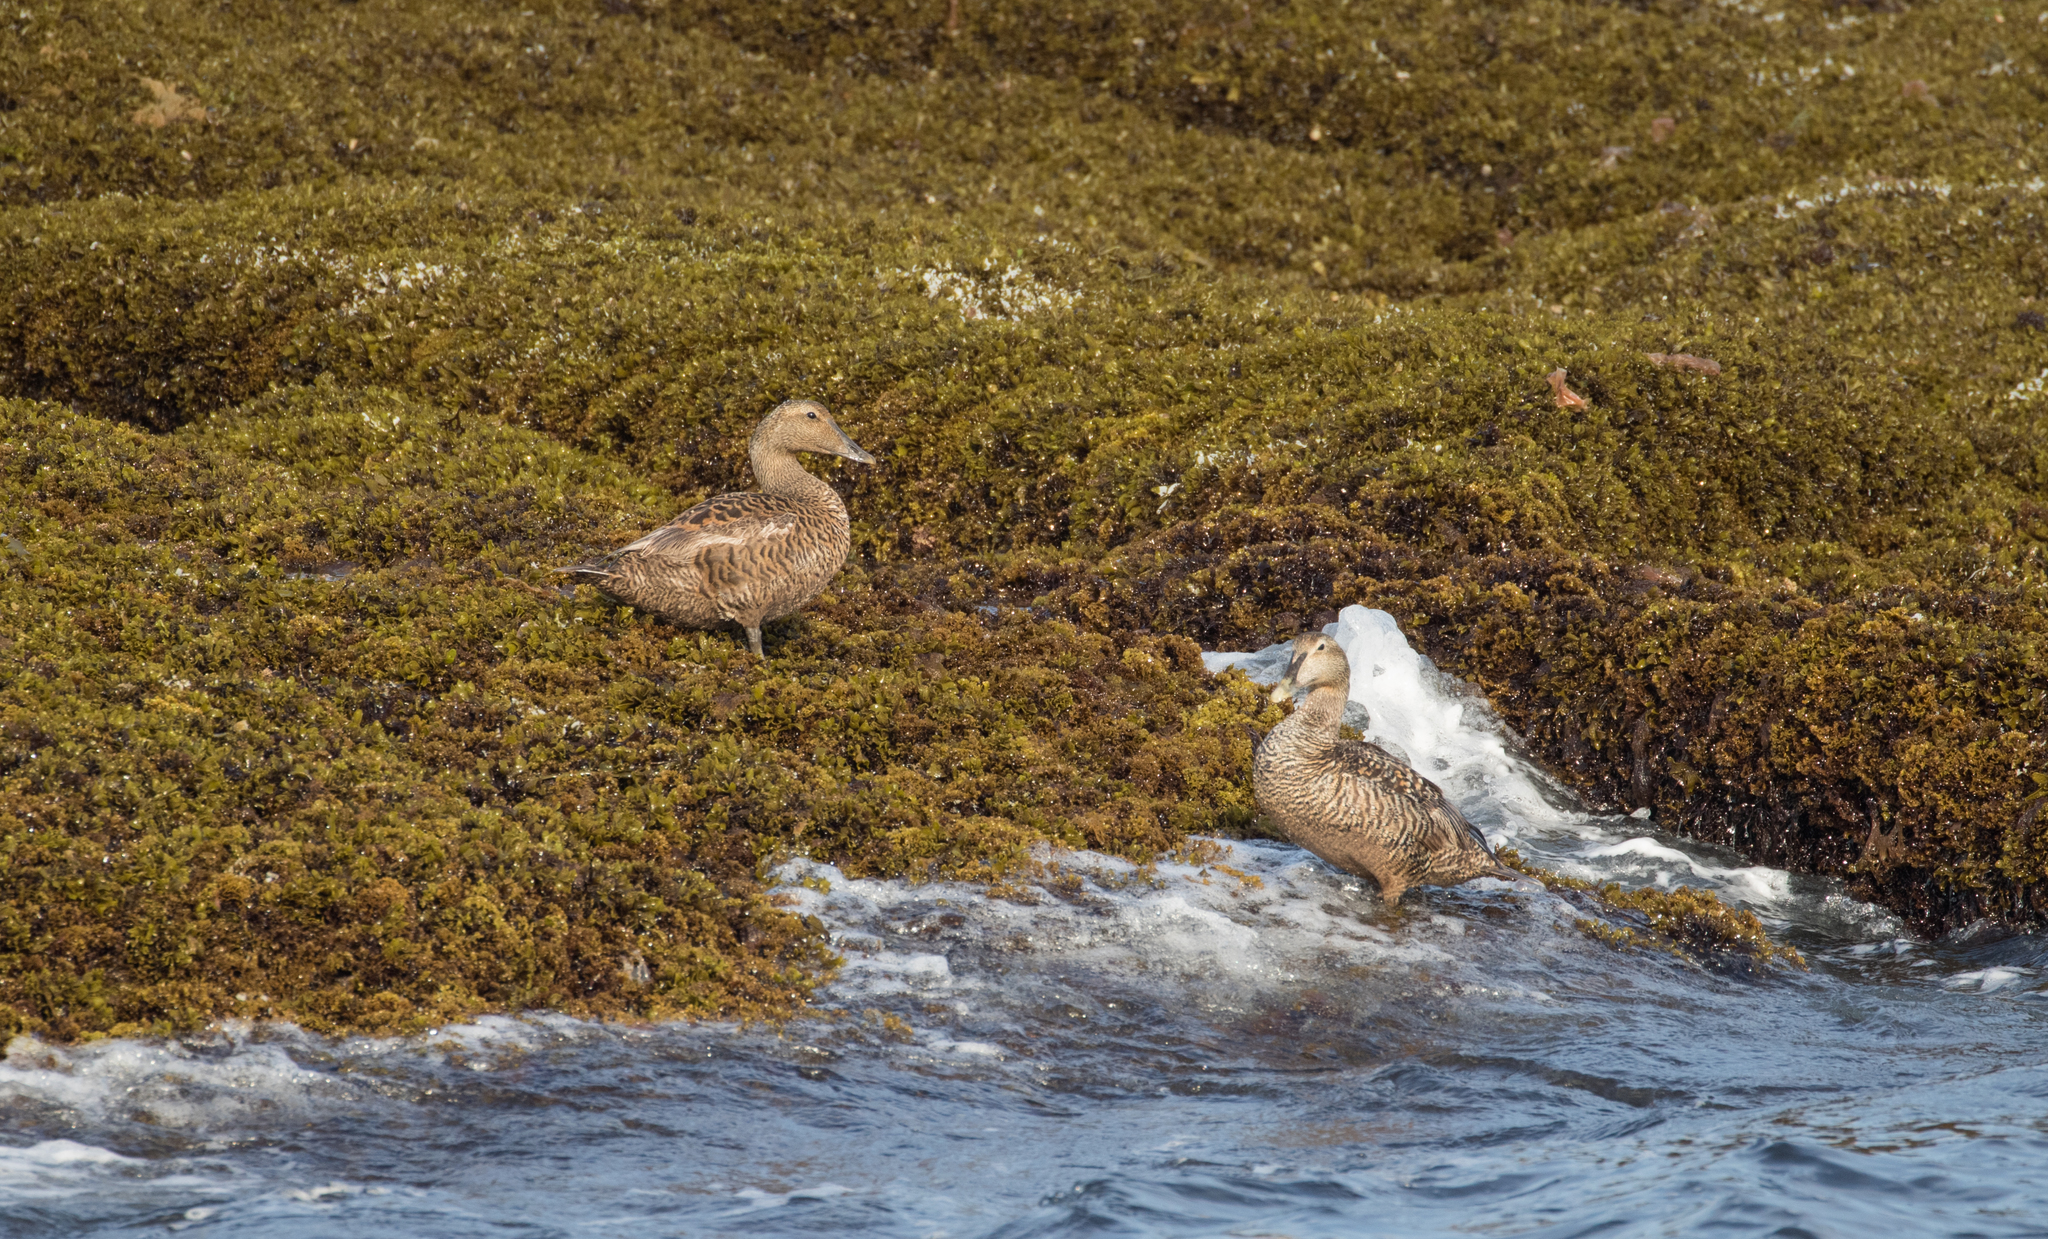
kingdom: Animalia
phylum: Chordata
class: Aves
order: Anseriformes
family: Anatidae
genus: Somateria
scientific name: Somateria mollissima
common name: Common eider
